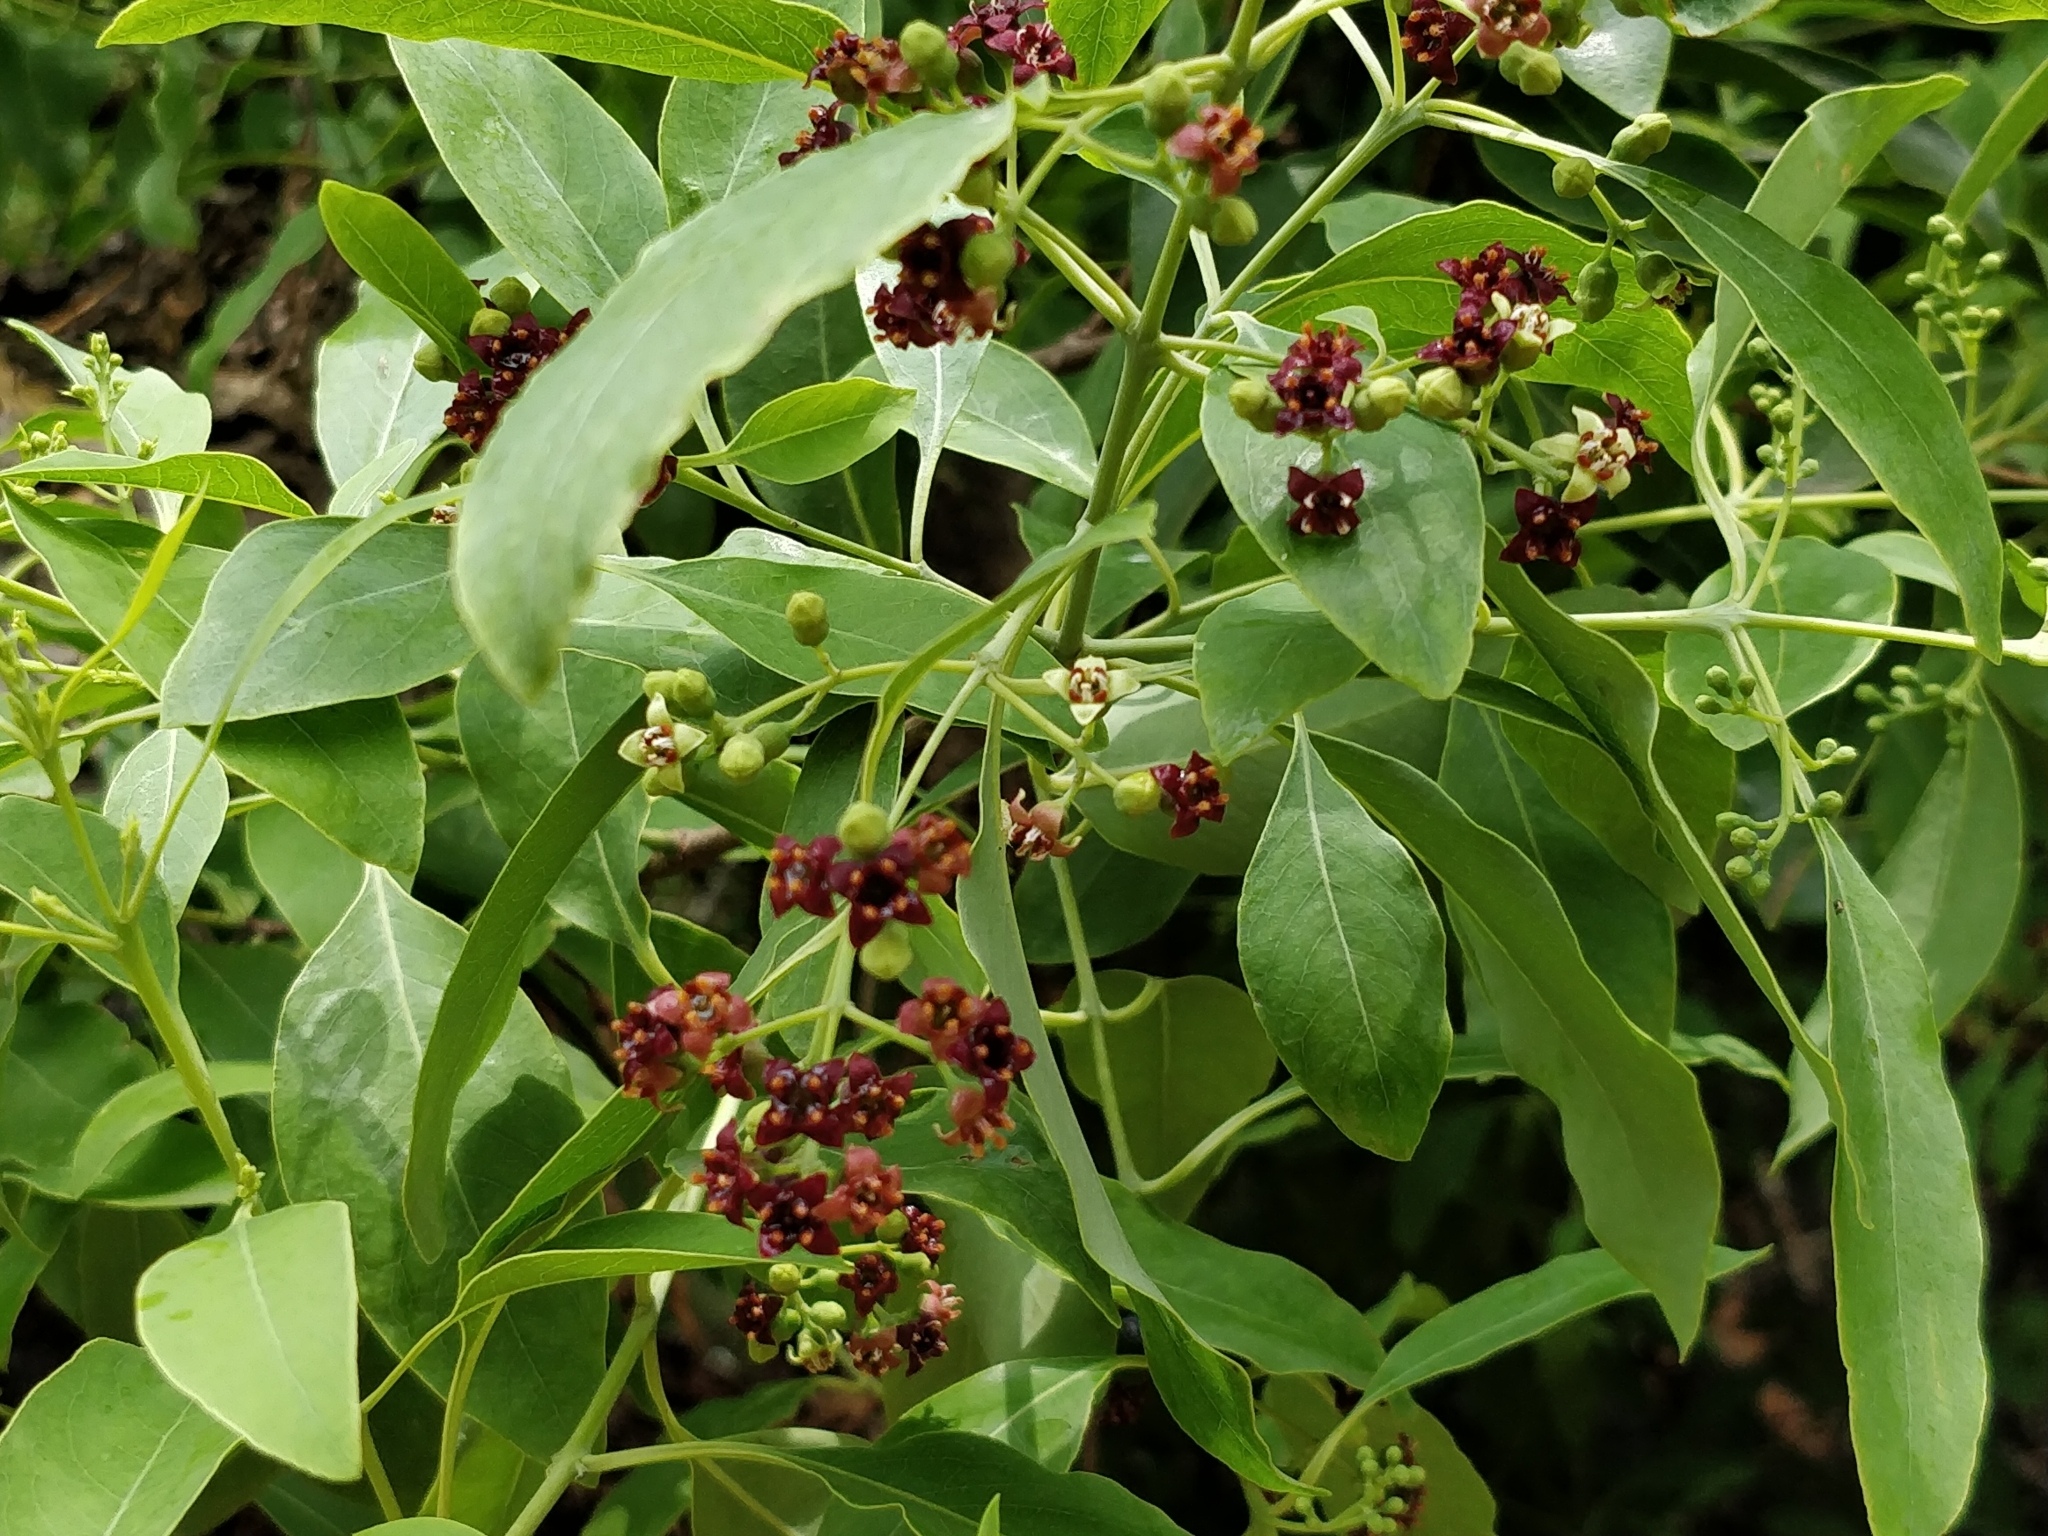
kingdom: Plantae
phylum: Tracheophyta
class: Magnoliopsida
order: Santalales
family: Santalaceae
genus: Santalum
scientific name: Santalum album
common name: Indian sandalwood
